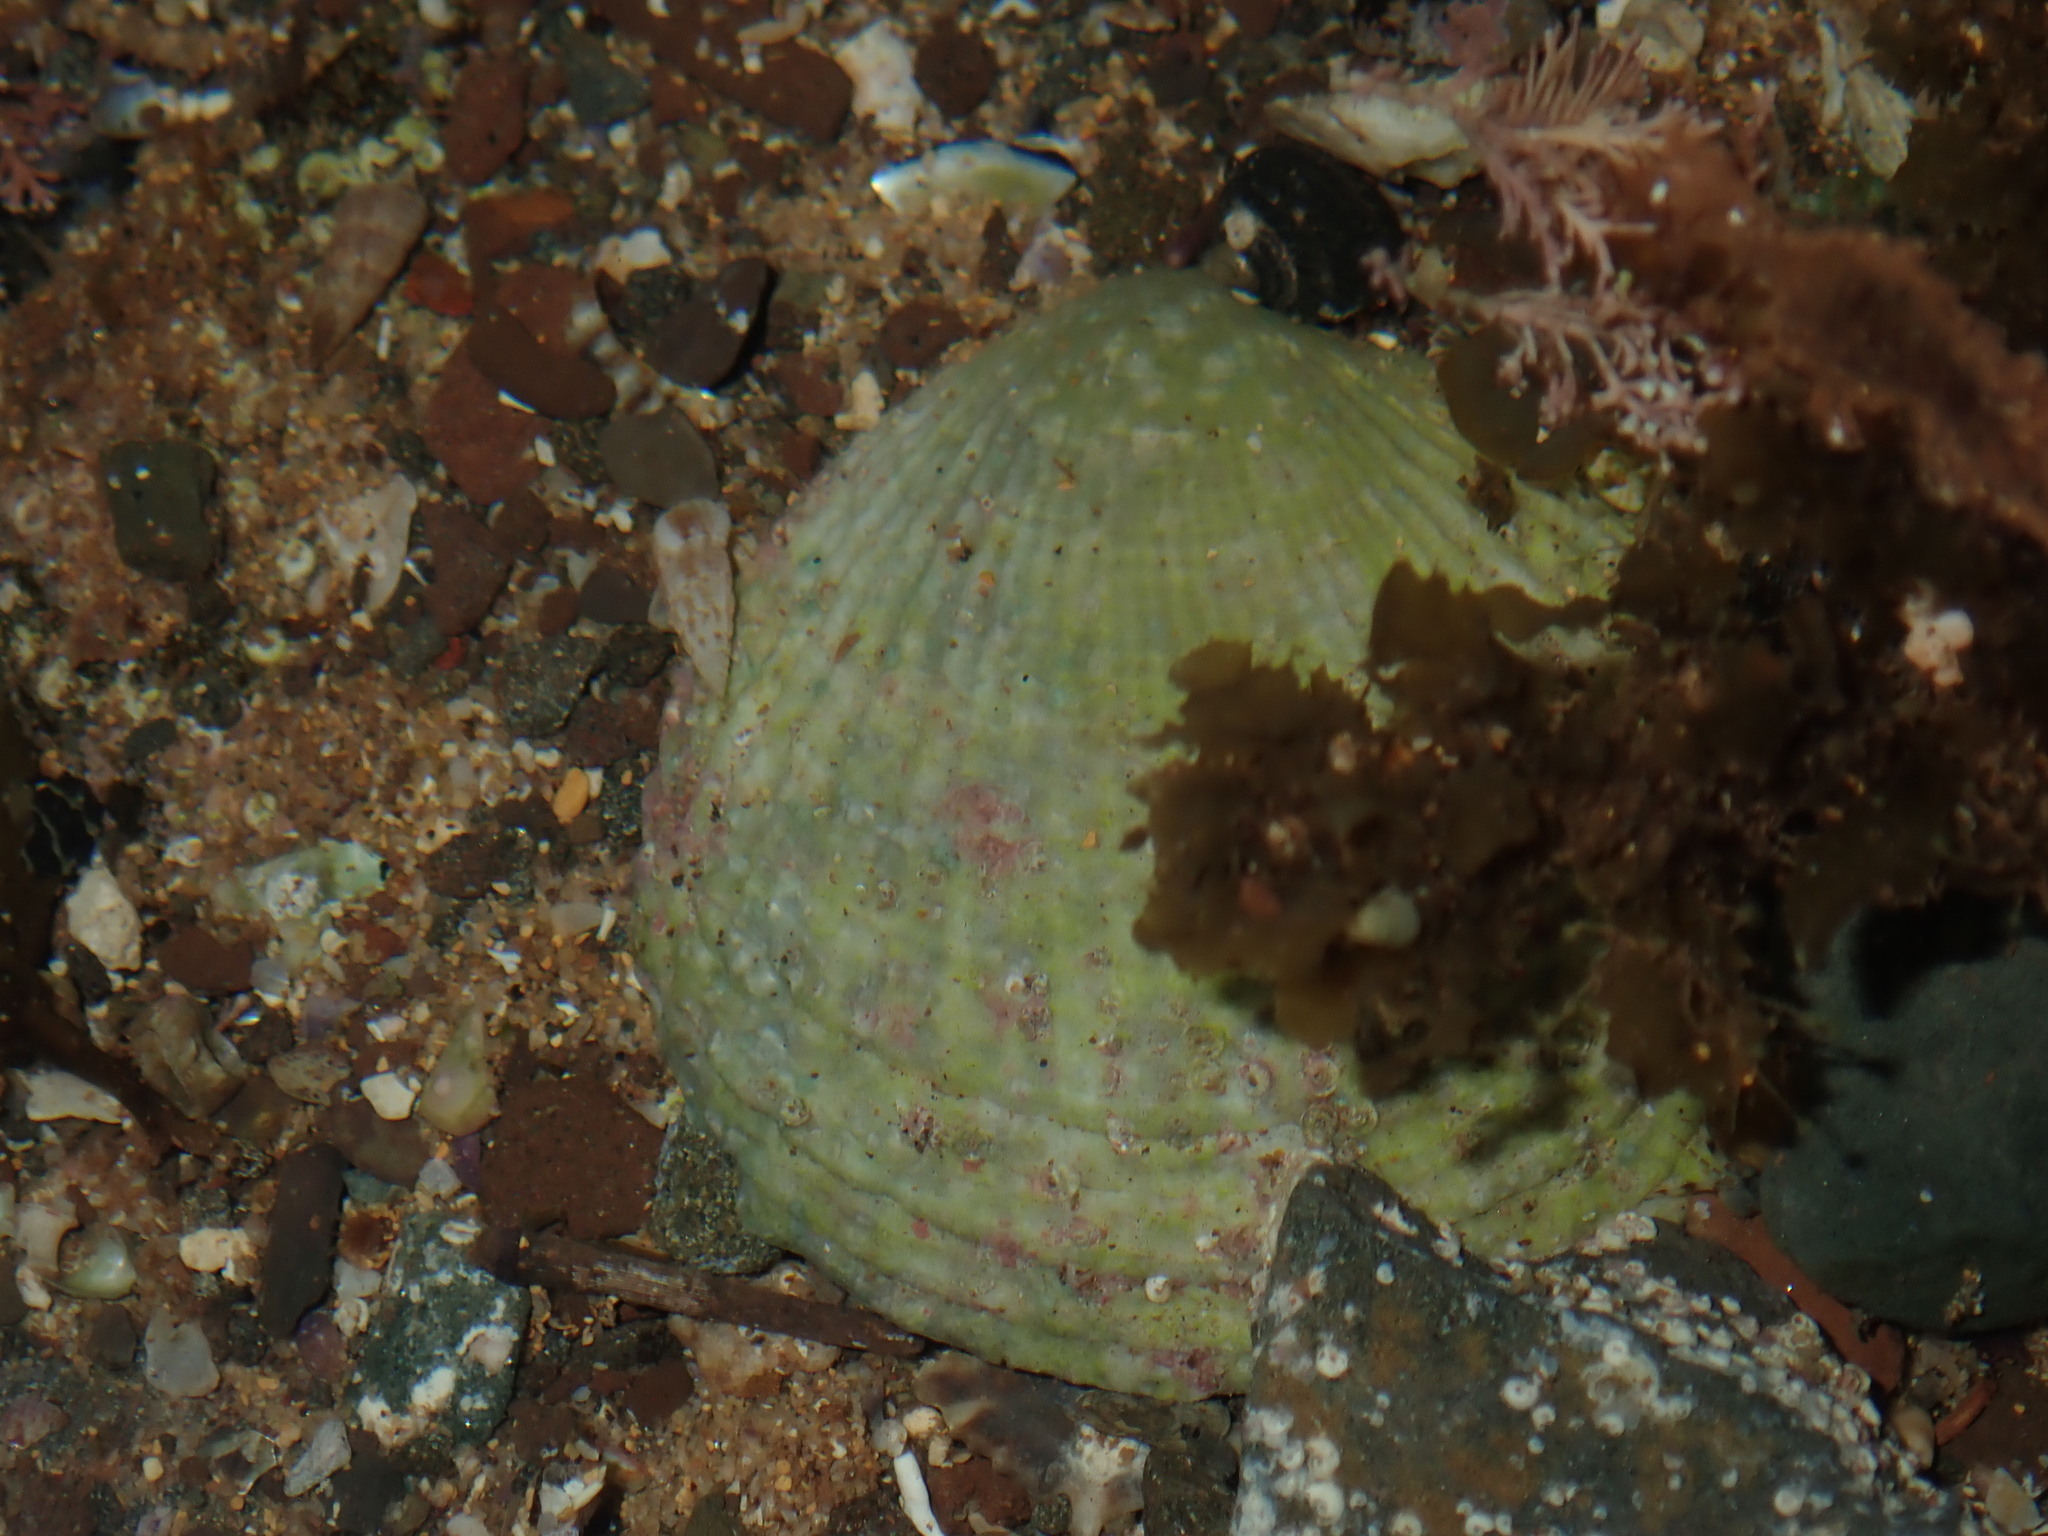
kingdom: Animalia
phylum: Mollusca
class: Bivalvia
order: Lucinida
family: Lucinidae
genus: Codakia
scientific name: Codakia rugifera
